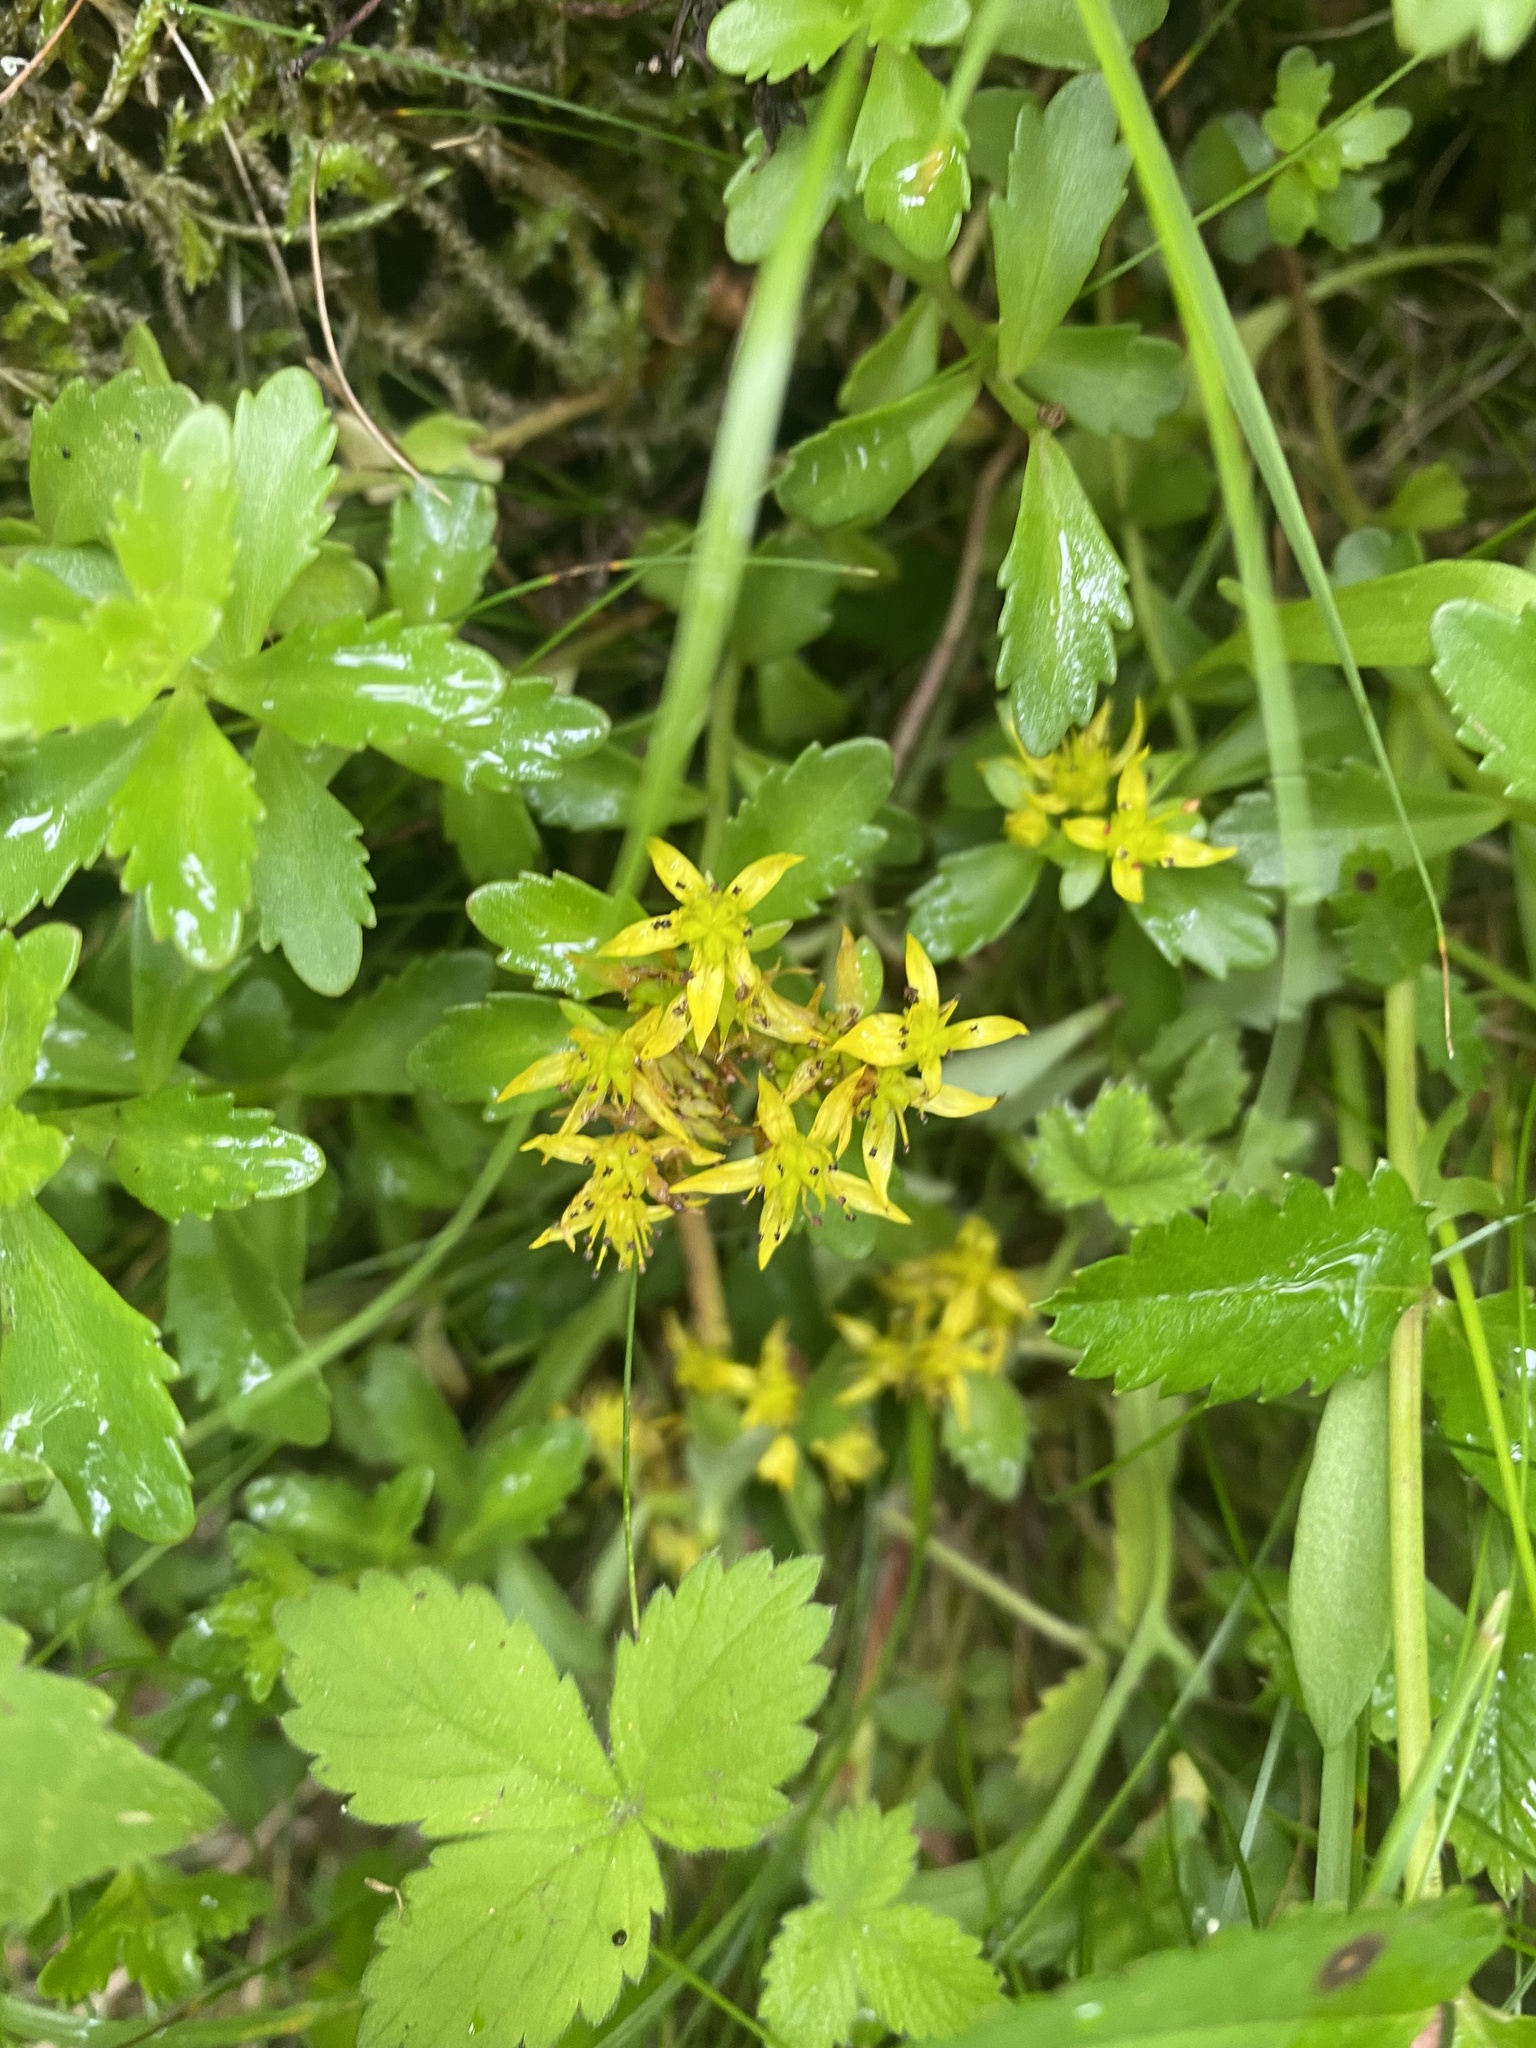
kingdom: Plantae
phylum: Tracheophyta
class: Magnoliopsida
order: Saxifragales
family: Crassulaceae
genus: Phedimus
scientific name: Phedimus kamtschaticus
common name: Orange stonecrop
